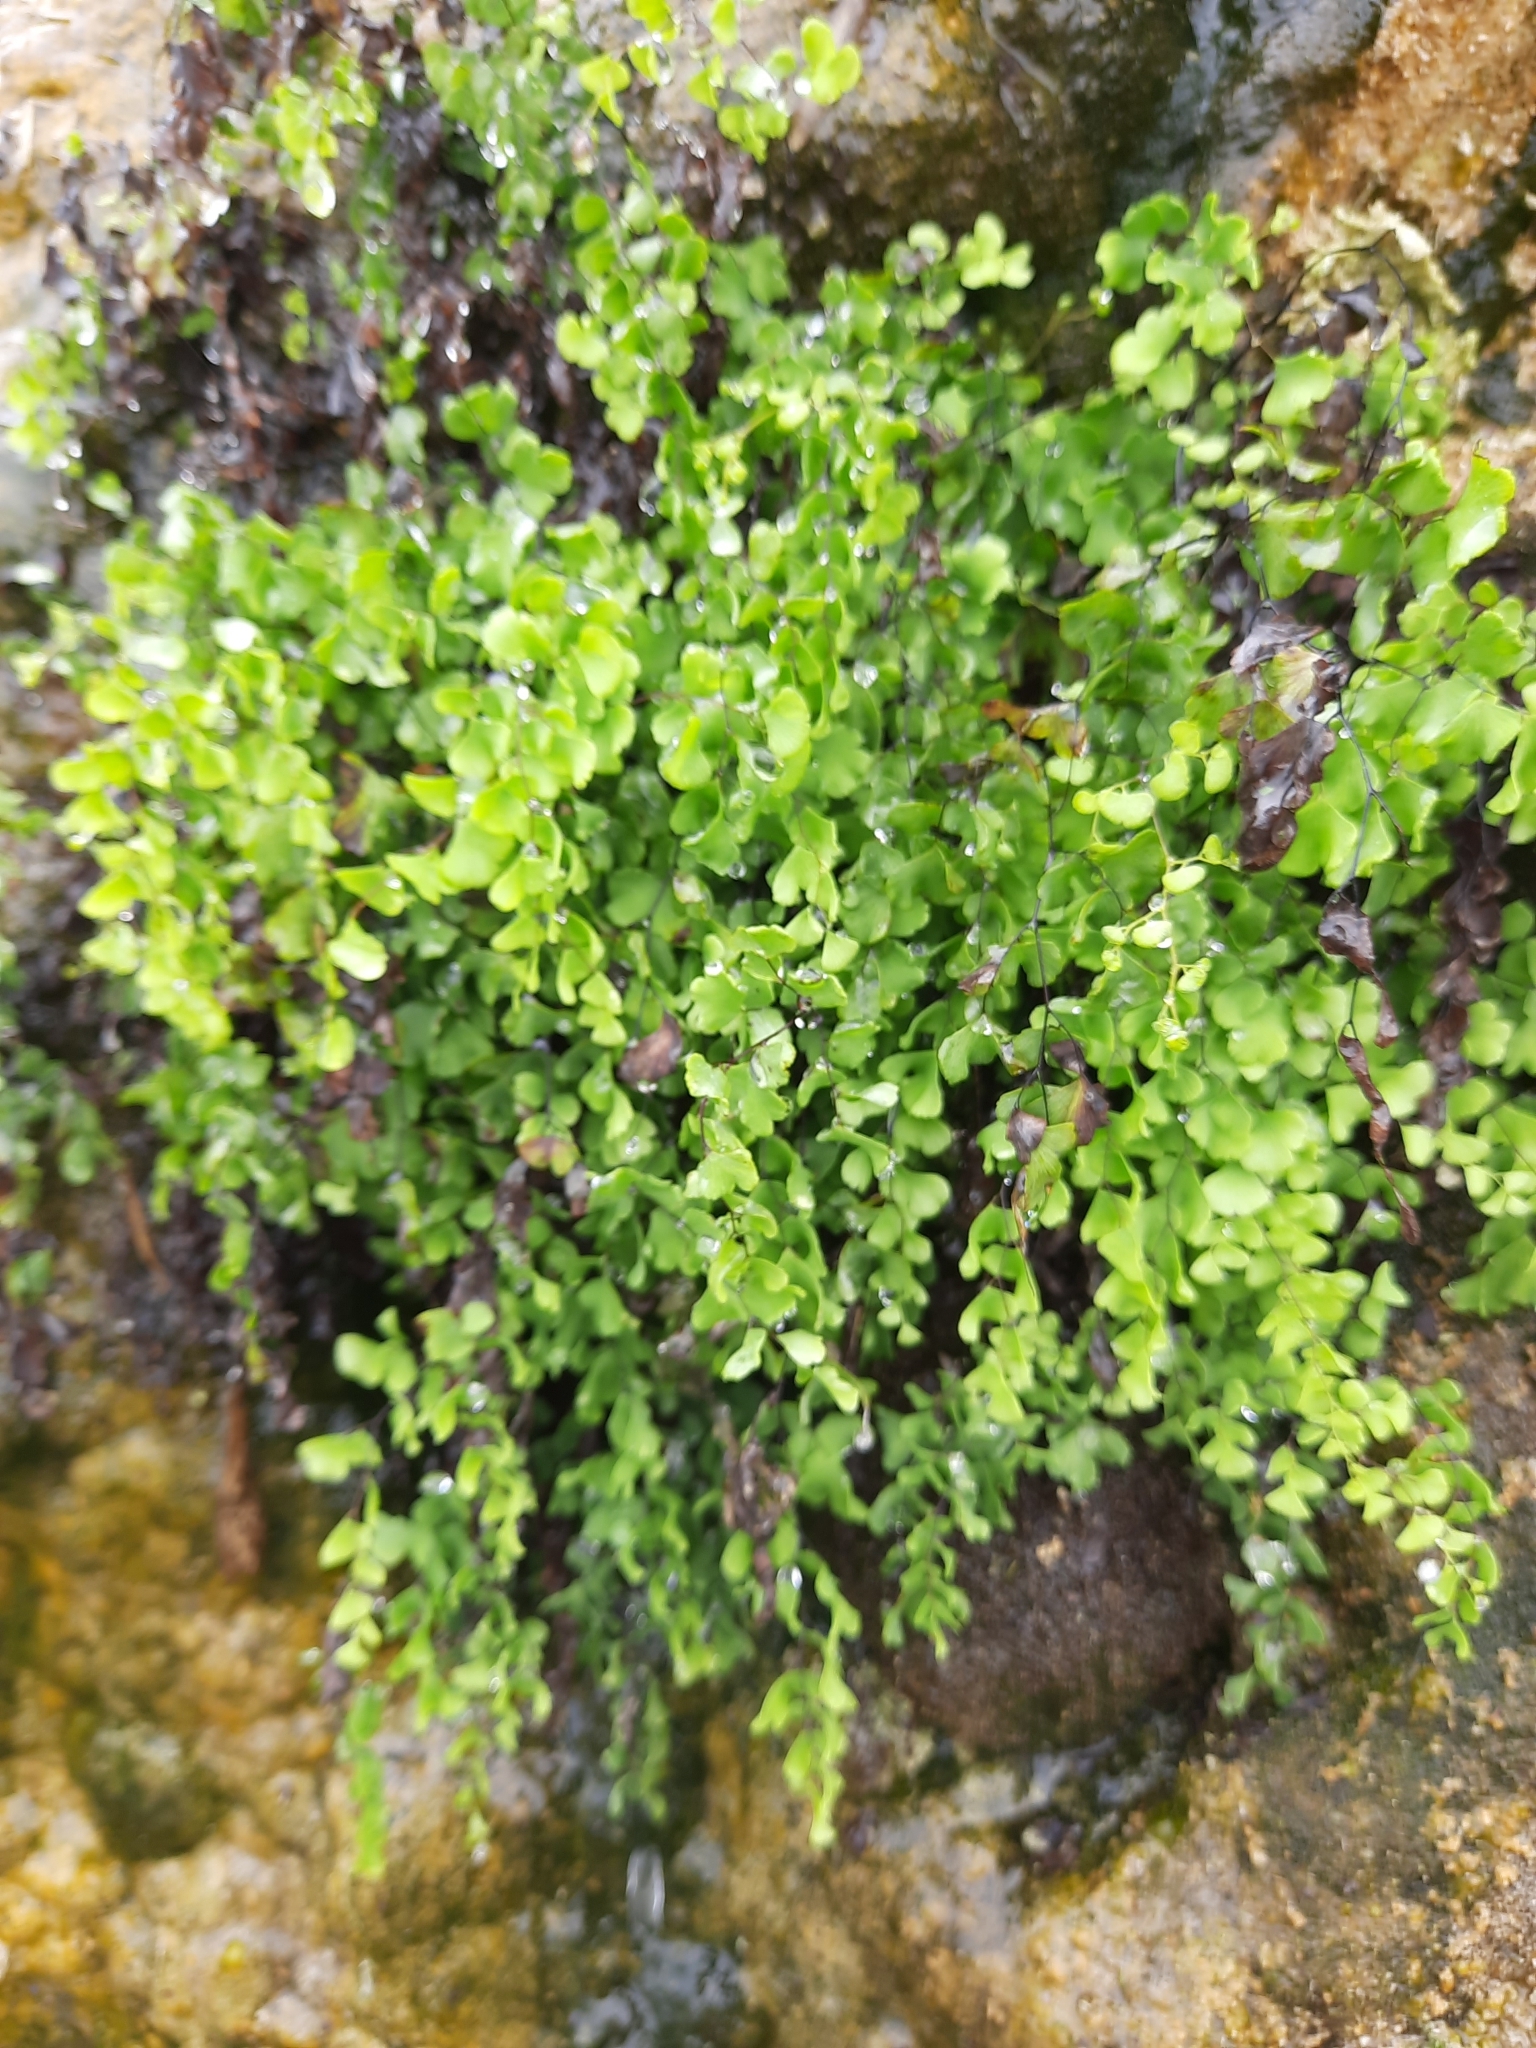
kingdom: Plantae
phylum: Tracheophyta
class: Polypodiopsida
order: Polypodiales
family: Pteridaceae
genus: Adiantum
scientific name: Adiantum capillus-veneris
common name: Maidenhair fern
